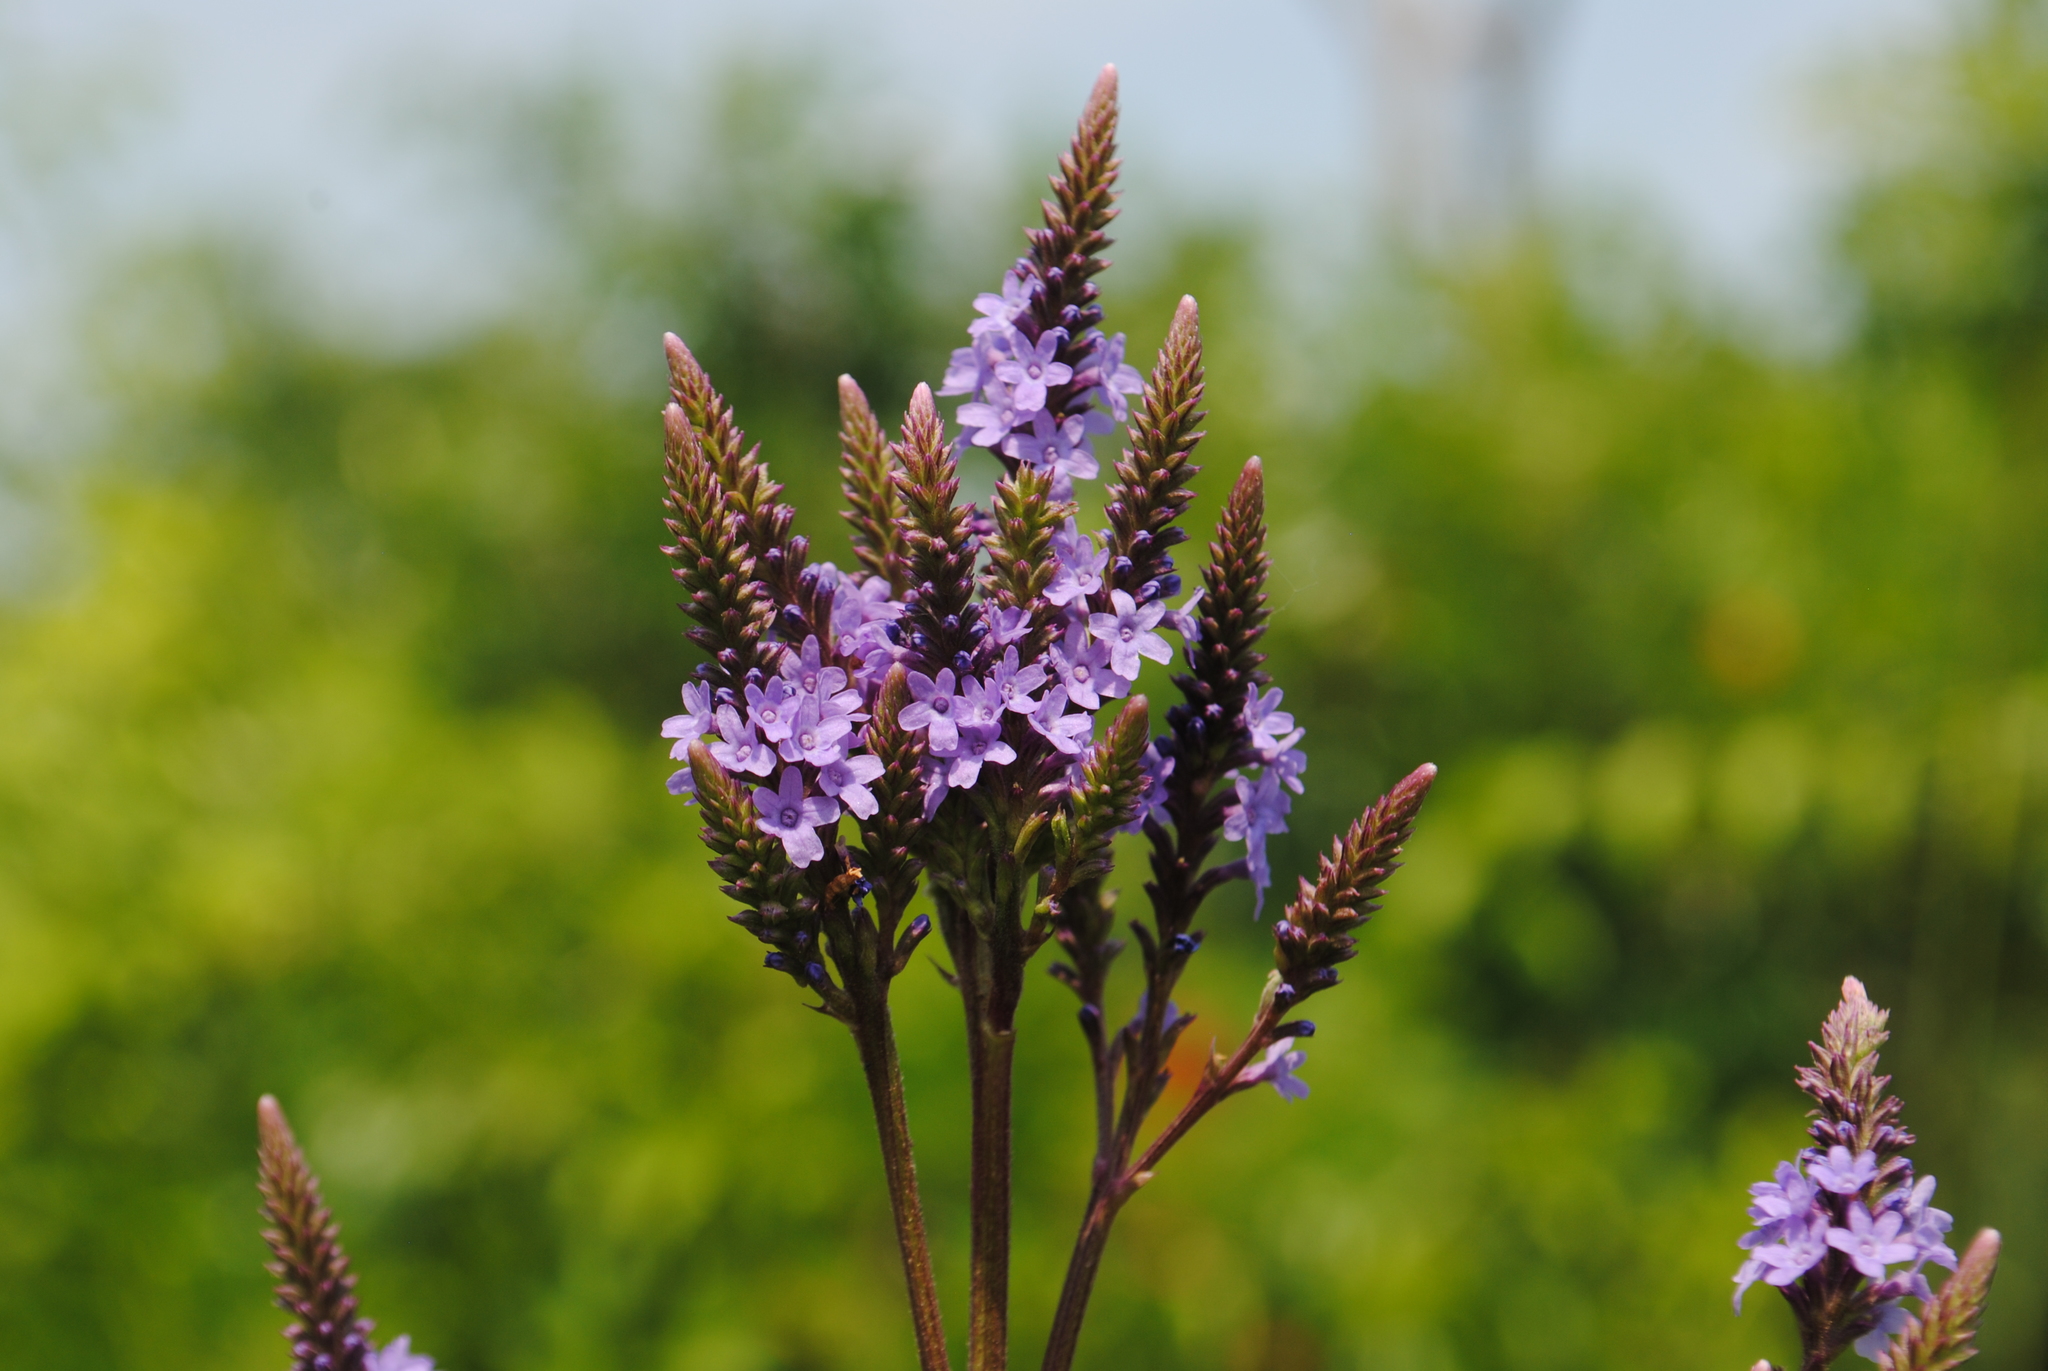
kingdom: Plantae
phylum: Tracheophyta
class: Magnoliopsida
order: Lamiales
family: Verbenaceae
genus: Verbena
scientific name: Verbena hastata
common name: American blue vervain
